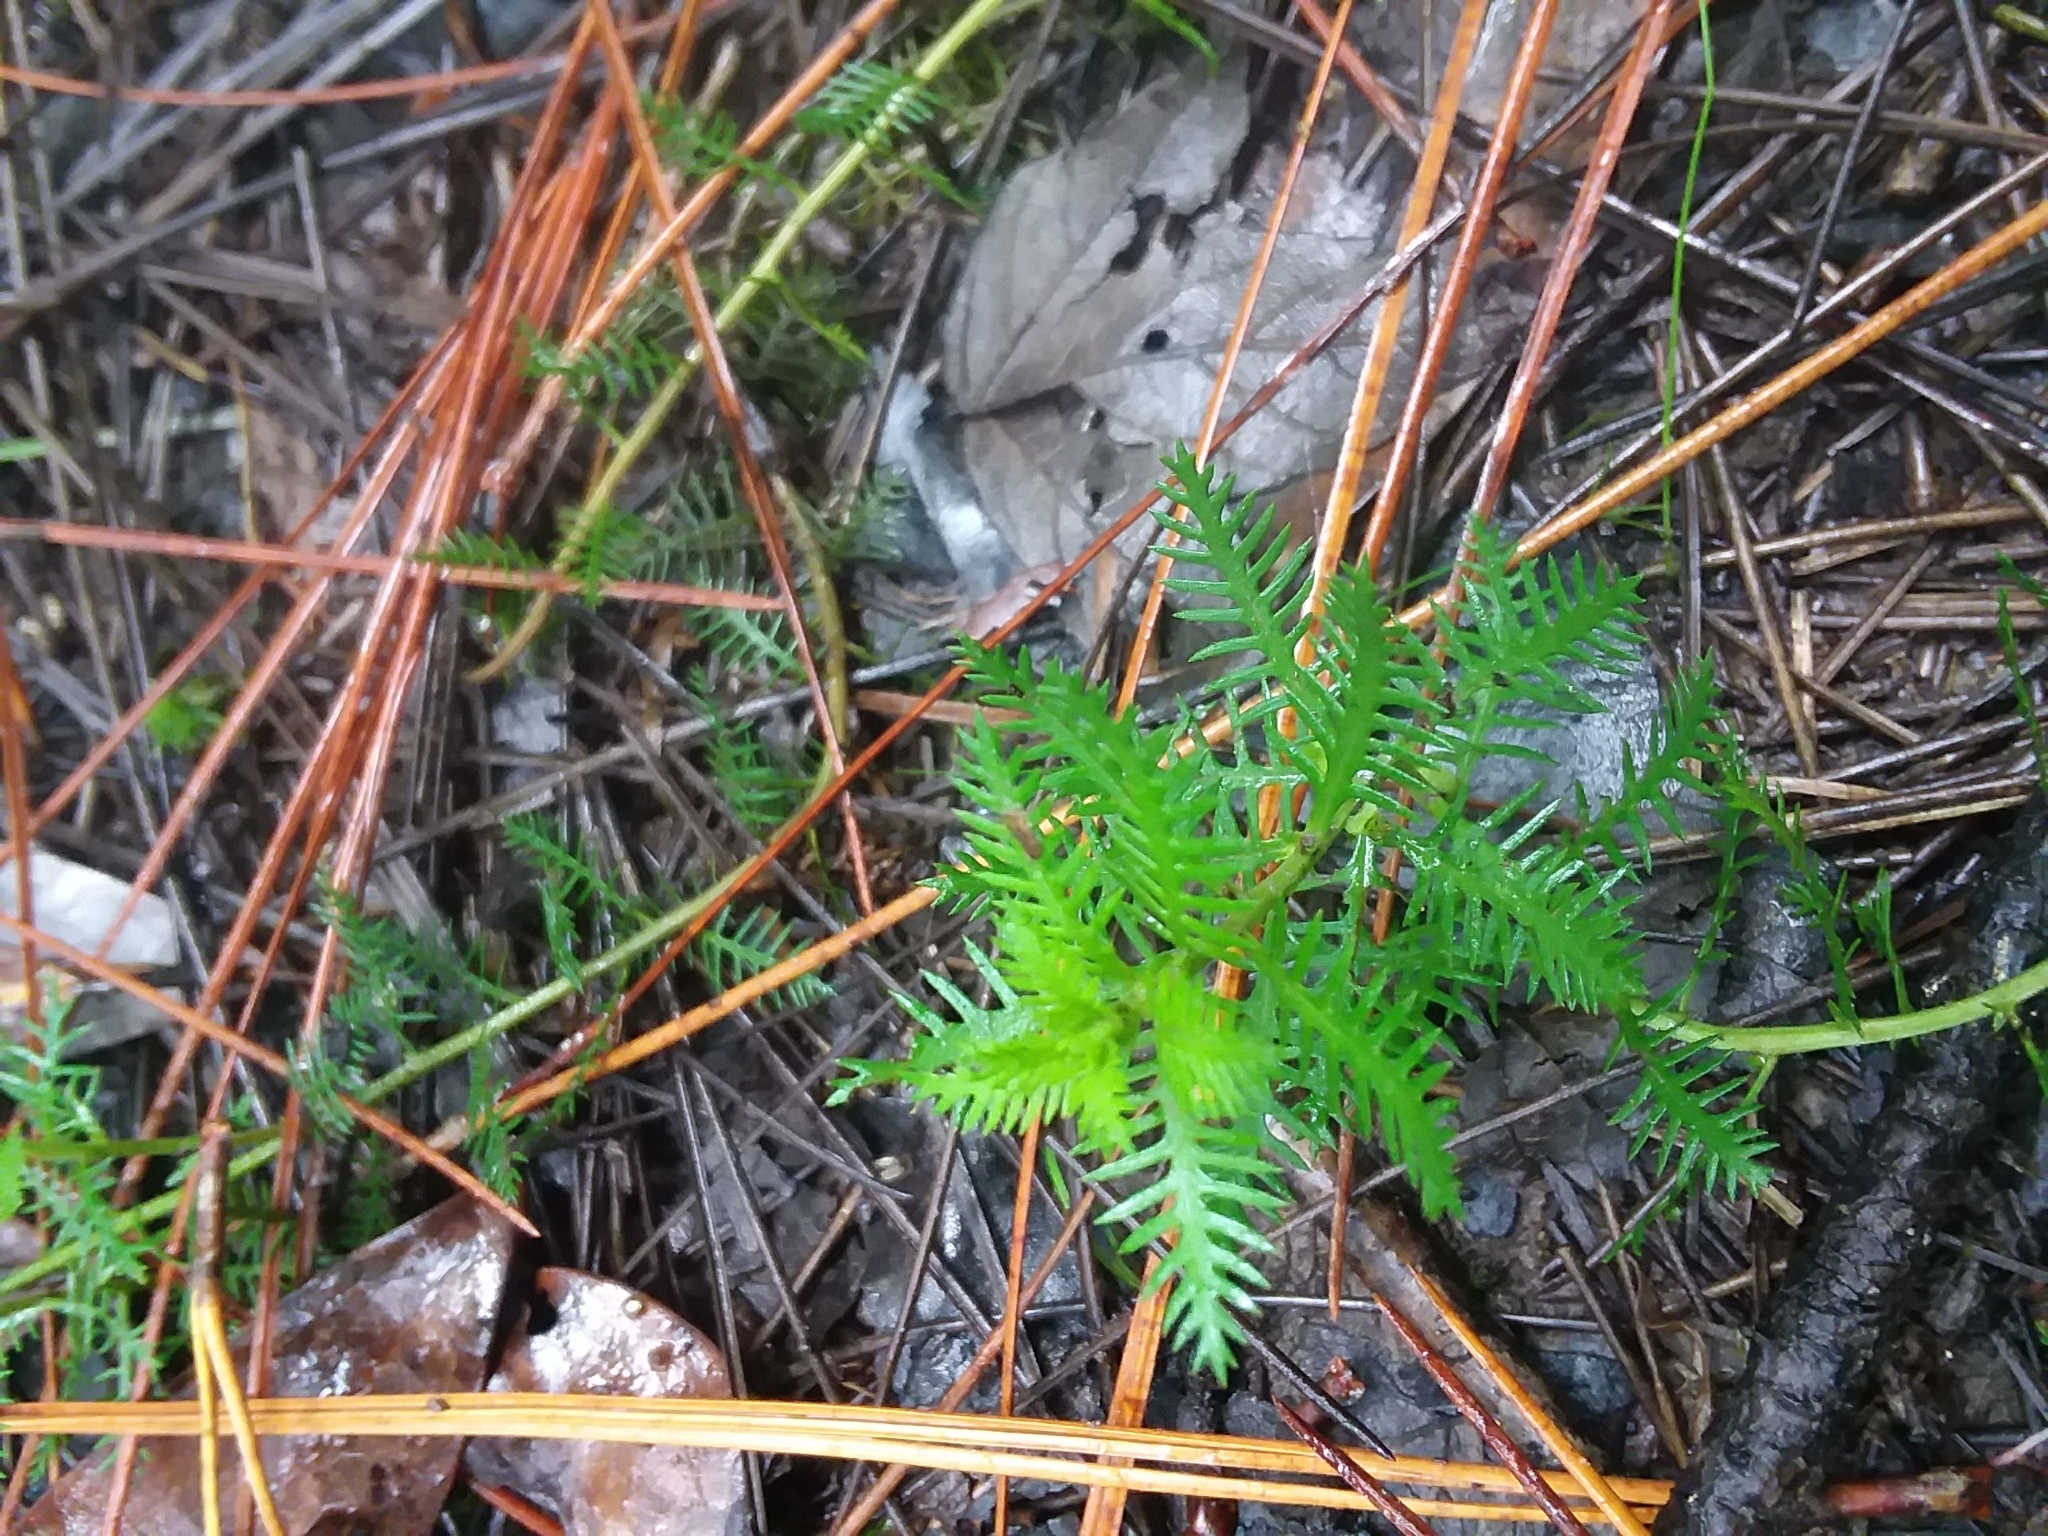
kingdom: Plantae
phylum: Tracheophyta
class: Magnoliopsida
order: Saxifragales
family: Haloragaceae
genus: Proserpinaca
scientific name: Proserpinaca intermedia
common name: Intermediate mermaidweed
